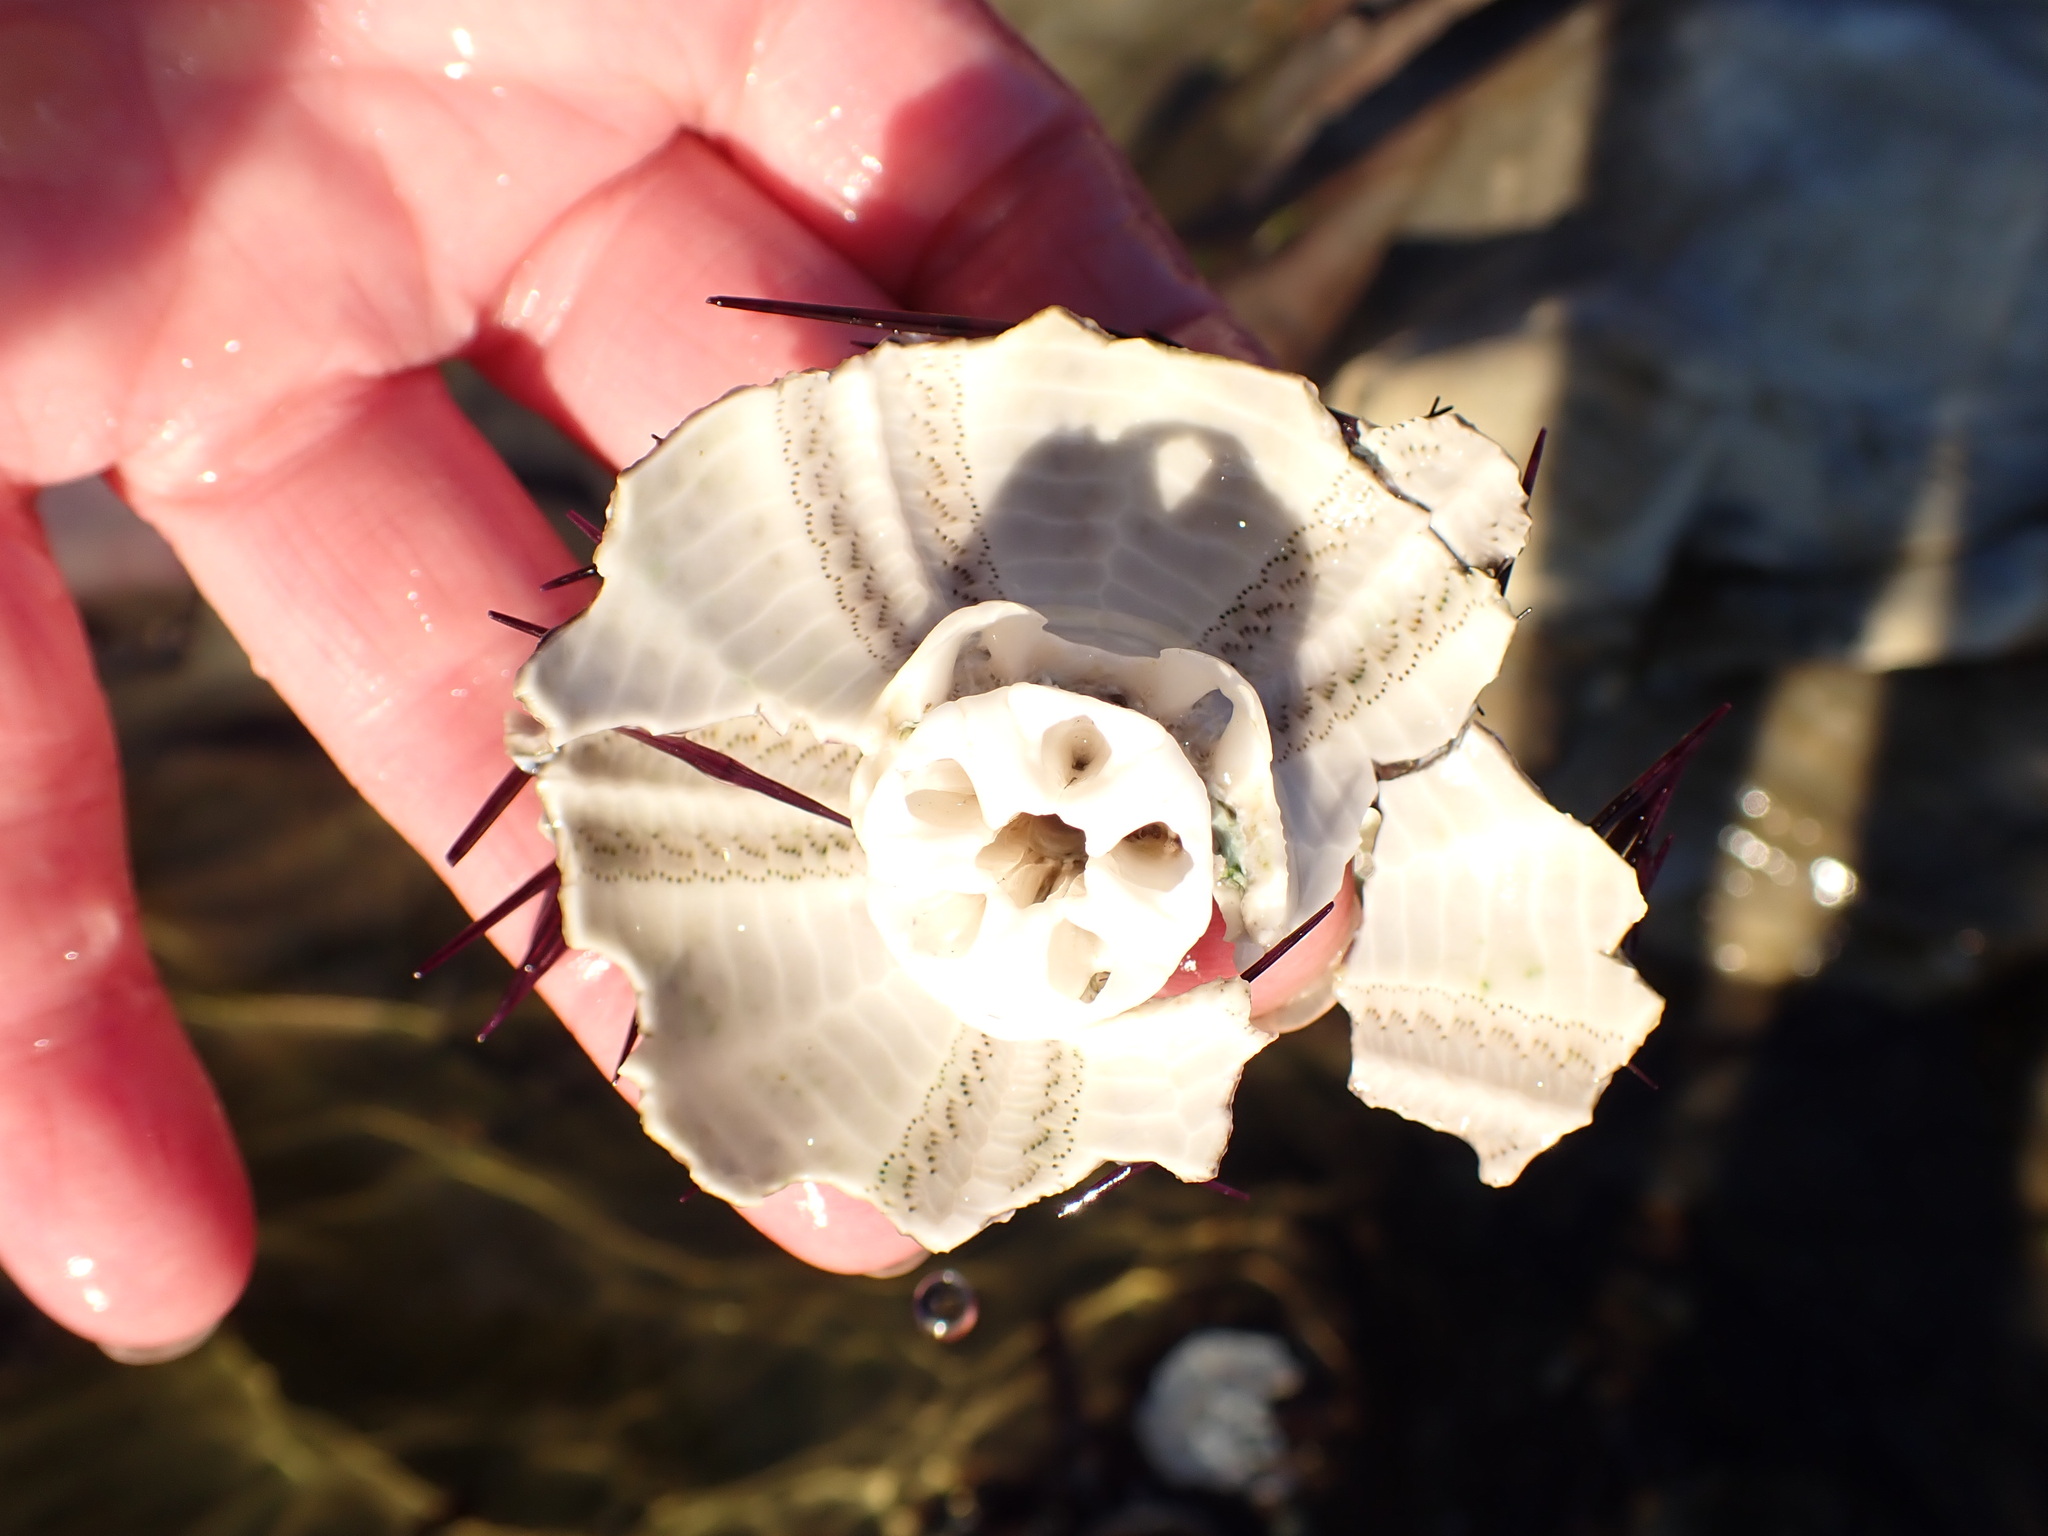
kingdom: Animalia
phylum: Echinodermata
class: Echinoidea
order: Camarodonta
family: Parechinidae
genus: Paracentrotus
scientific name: Paracentrotus lividus
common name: Purple sea urchin
